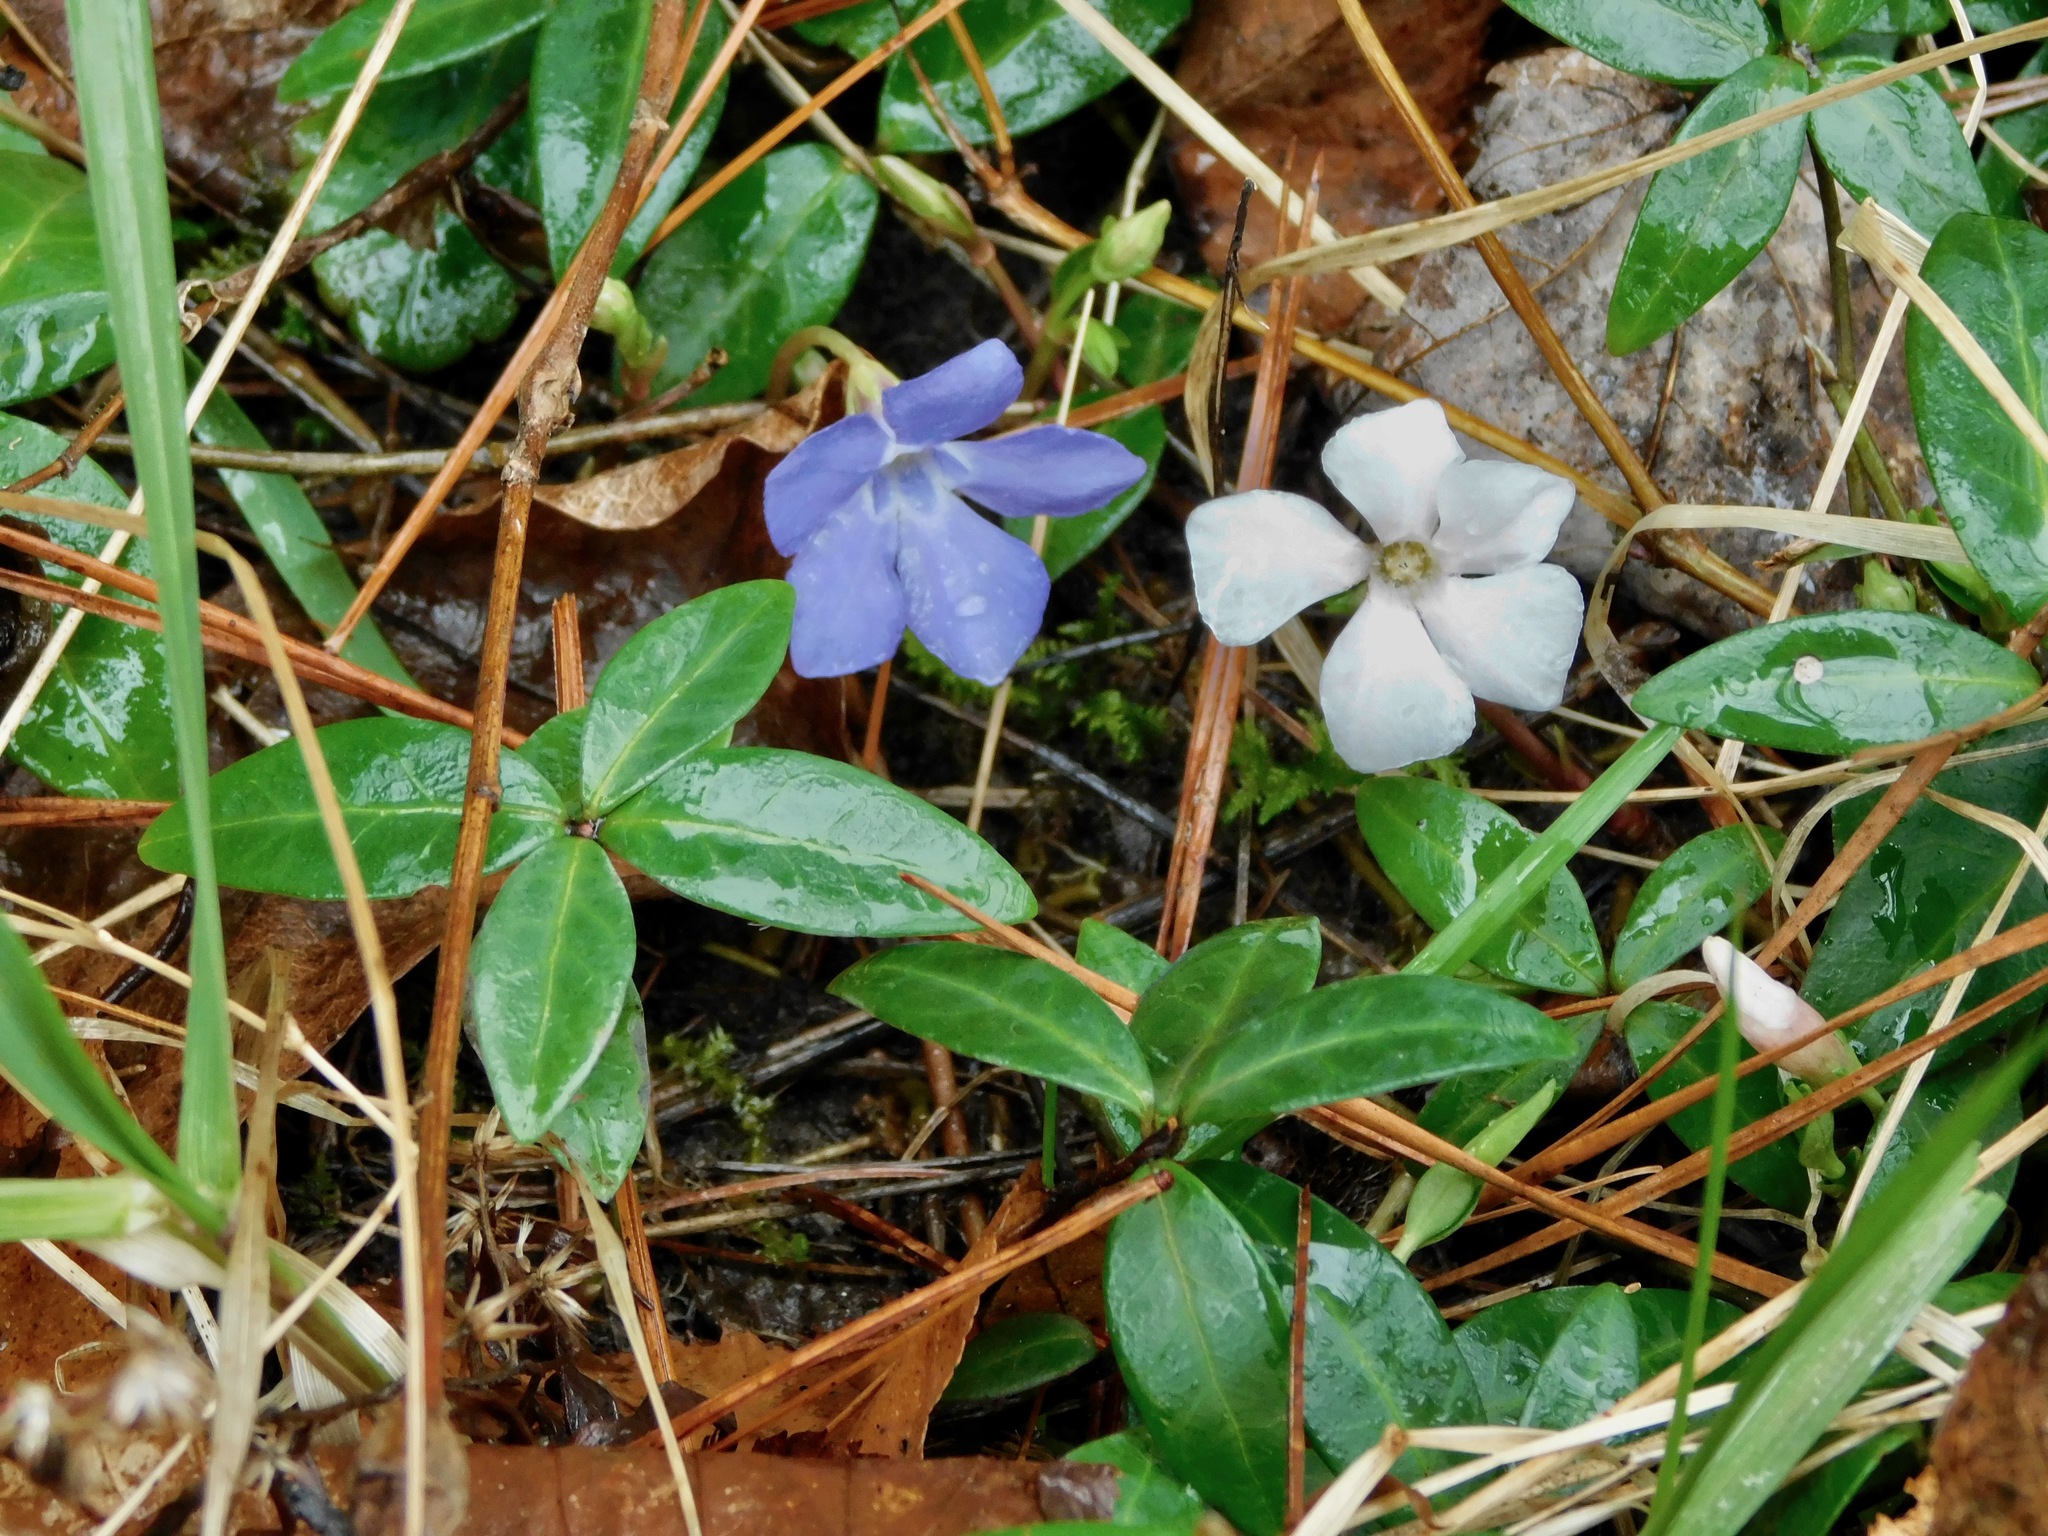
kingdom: Plantae
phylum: Tracheophyta
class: Magnoliopsida
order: Gentianales
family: Apocynaceae
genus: Vinca
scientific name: Vinca minor
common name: Lesser periwinkle
